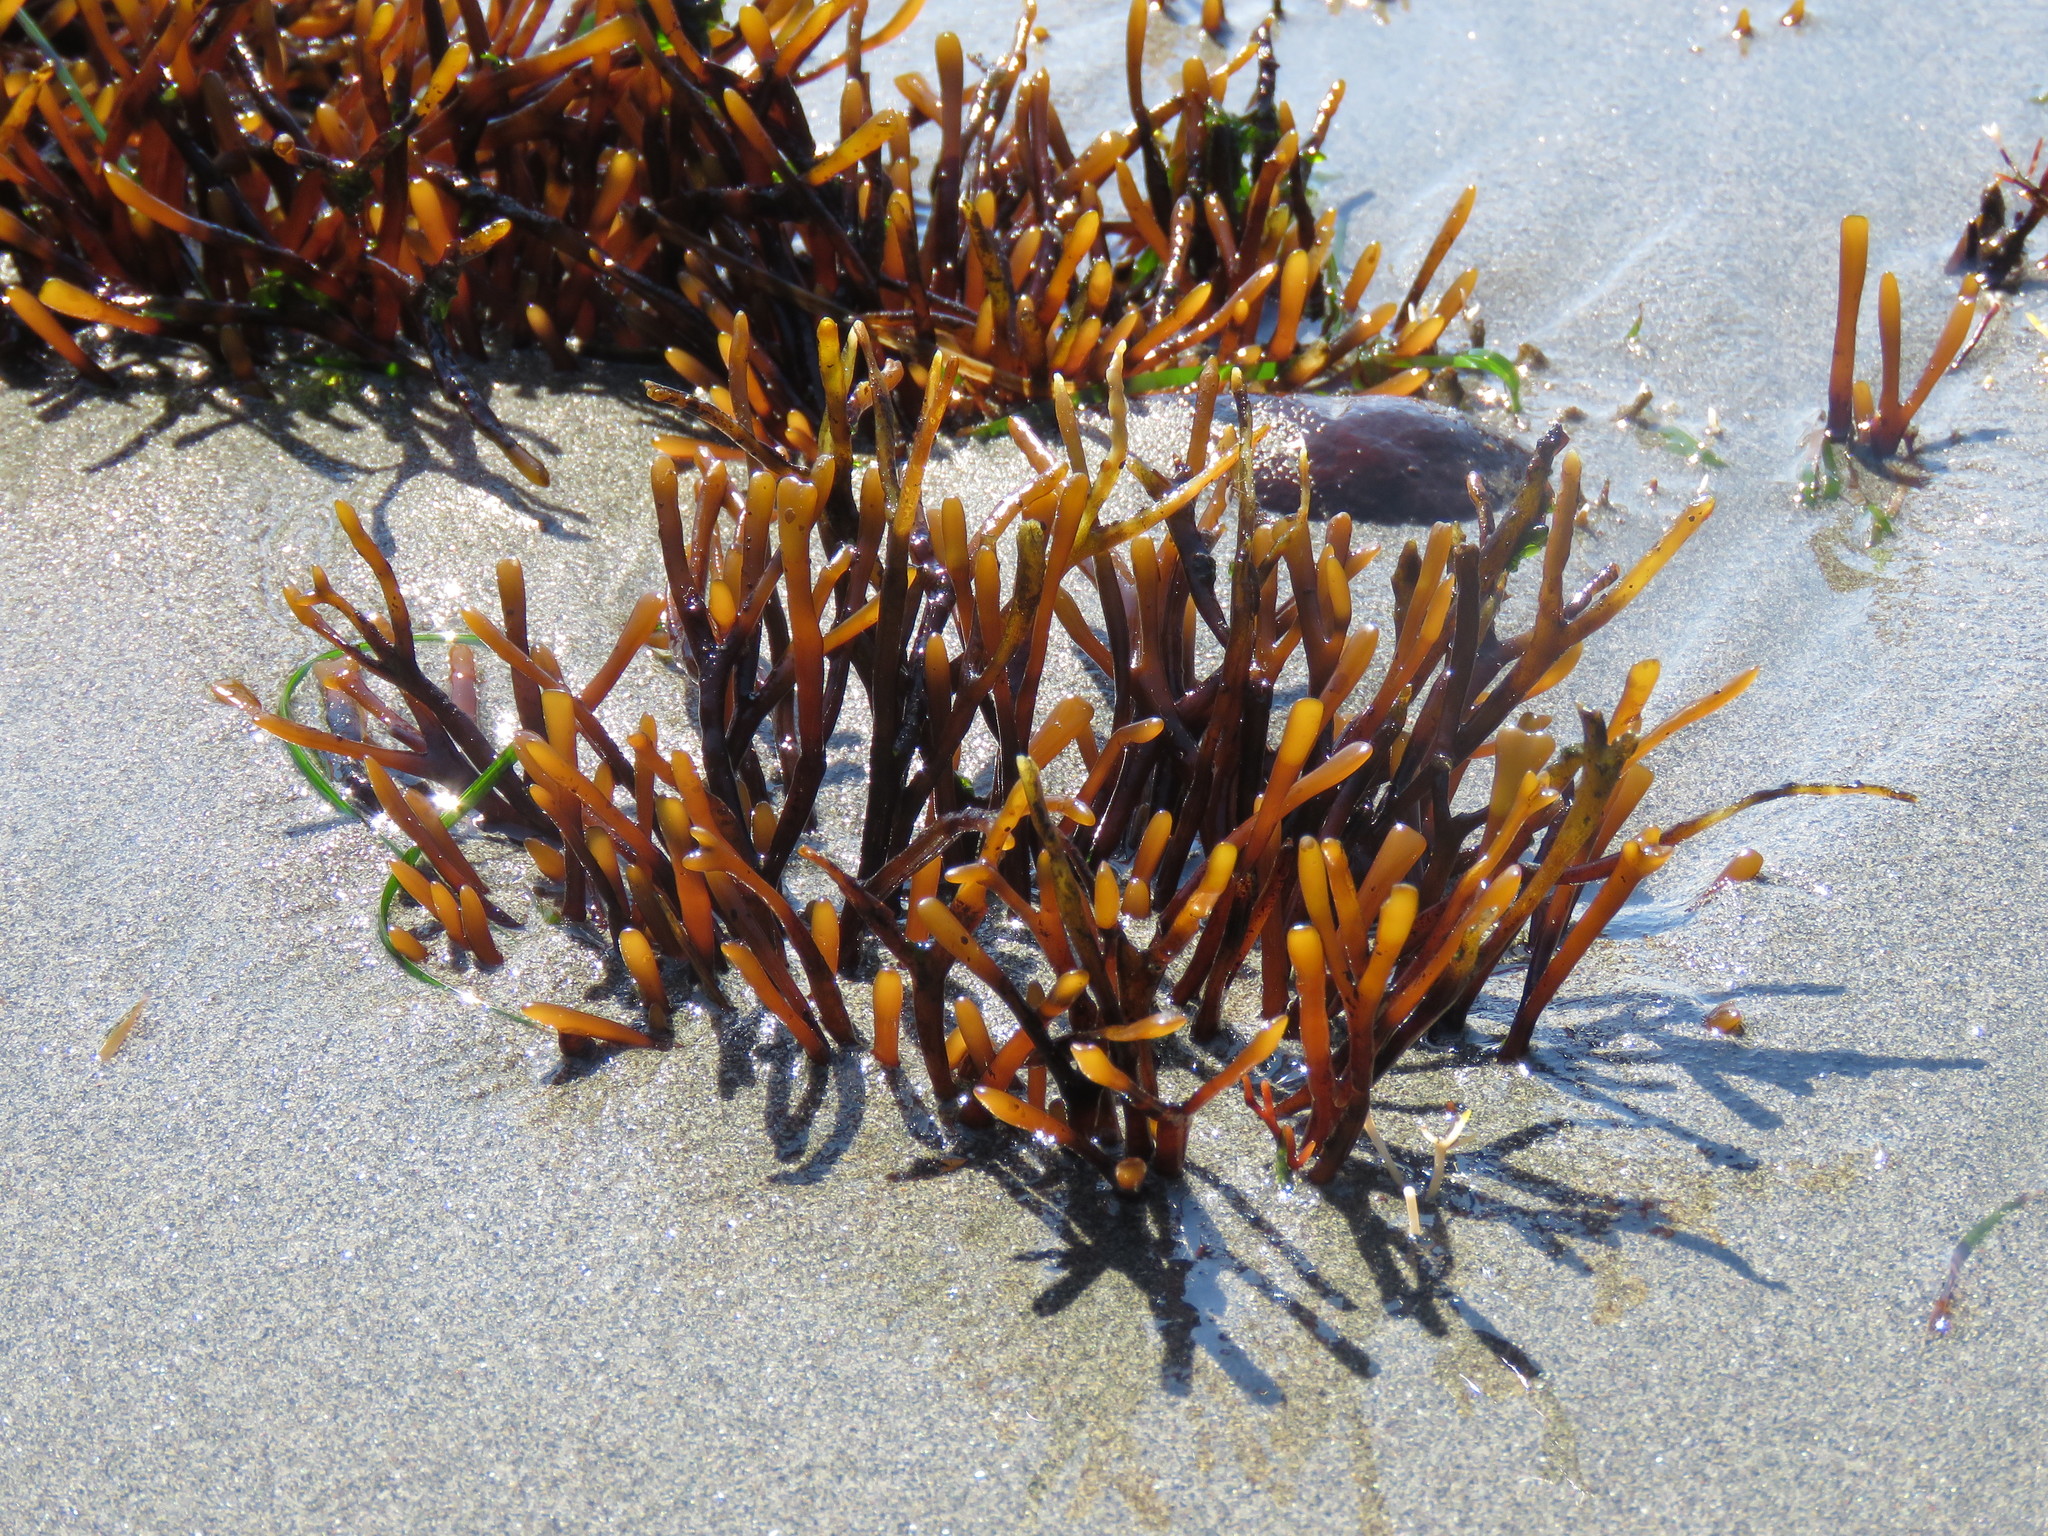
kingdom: Plantae
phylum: Rhodophyta
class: Florideophyceae
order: Gigartinales
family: Phyllophoraceae
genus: Ahnfeltiopsis
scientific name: Ahnfeltiopsis linearis
